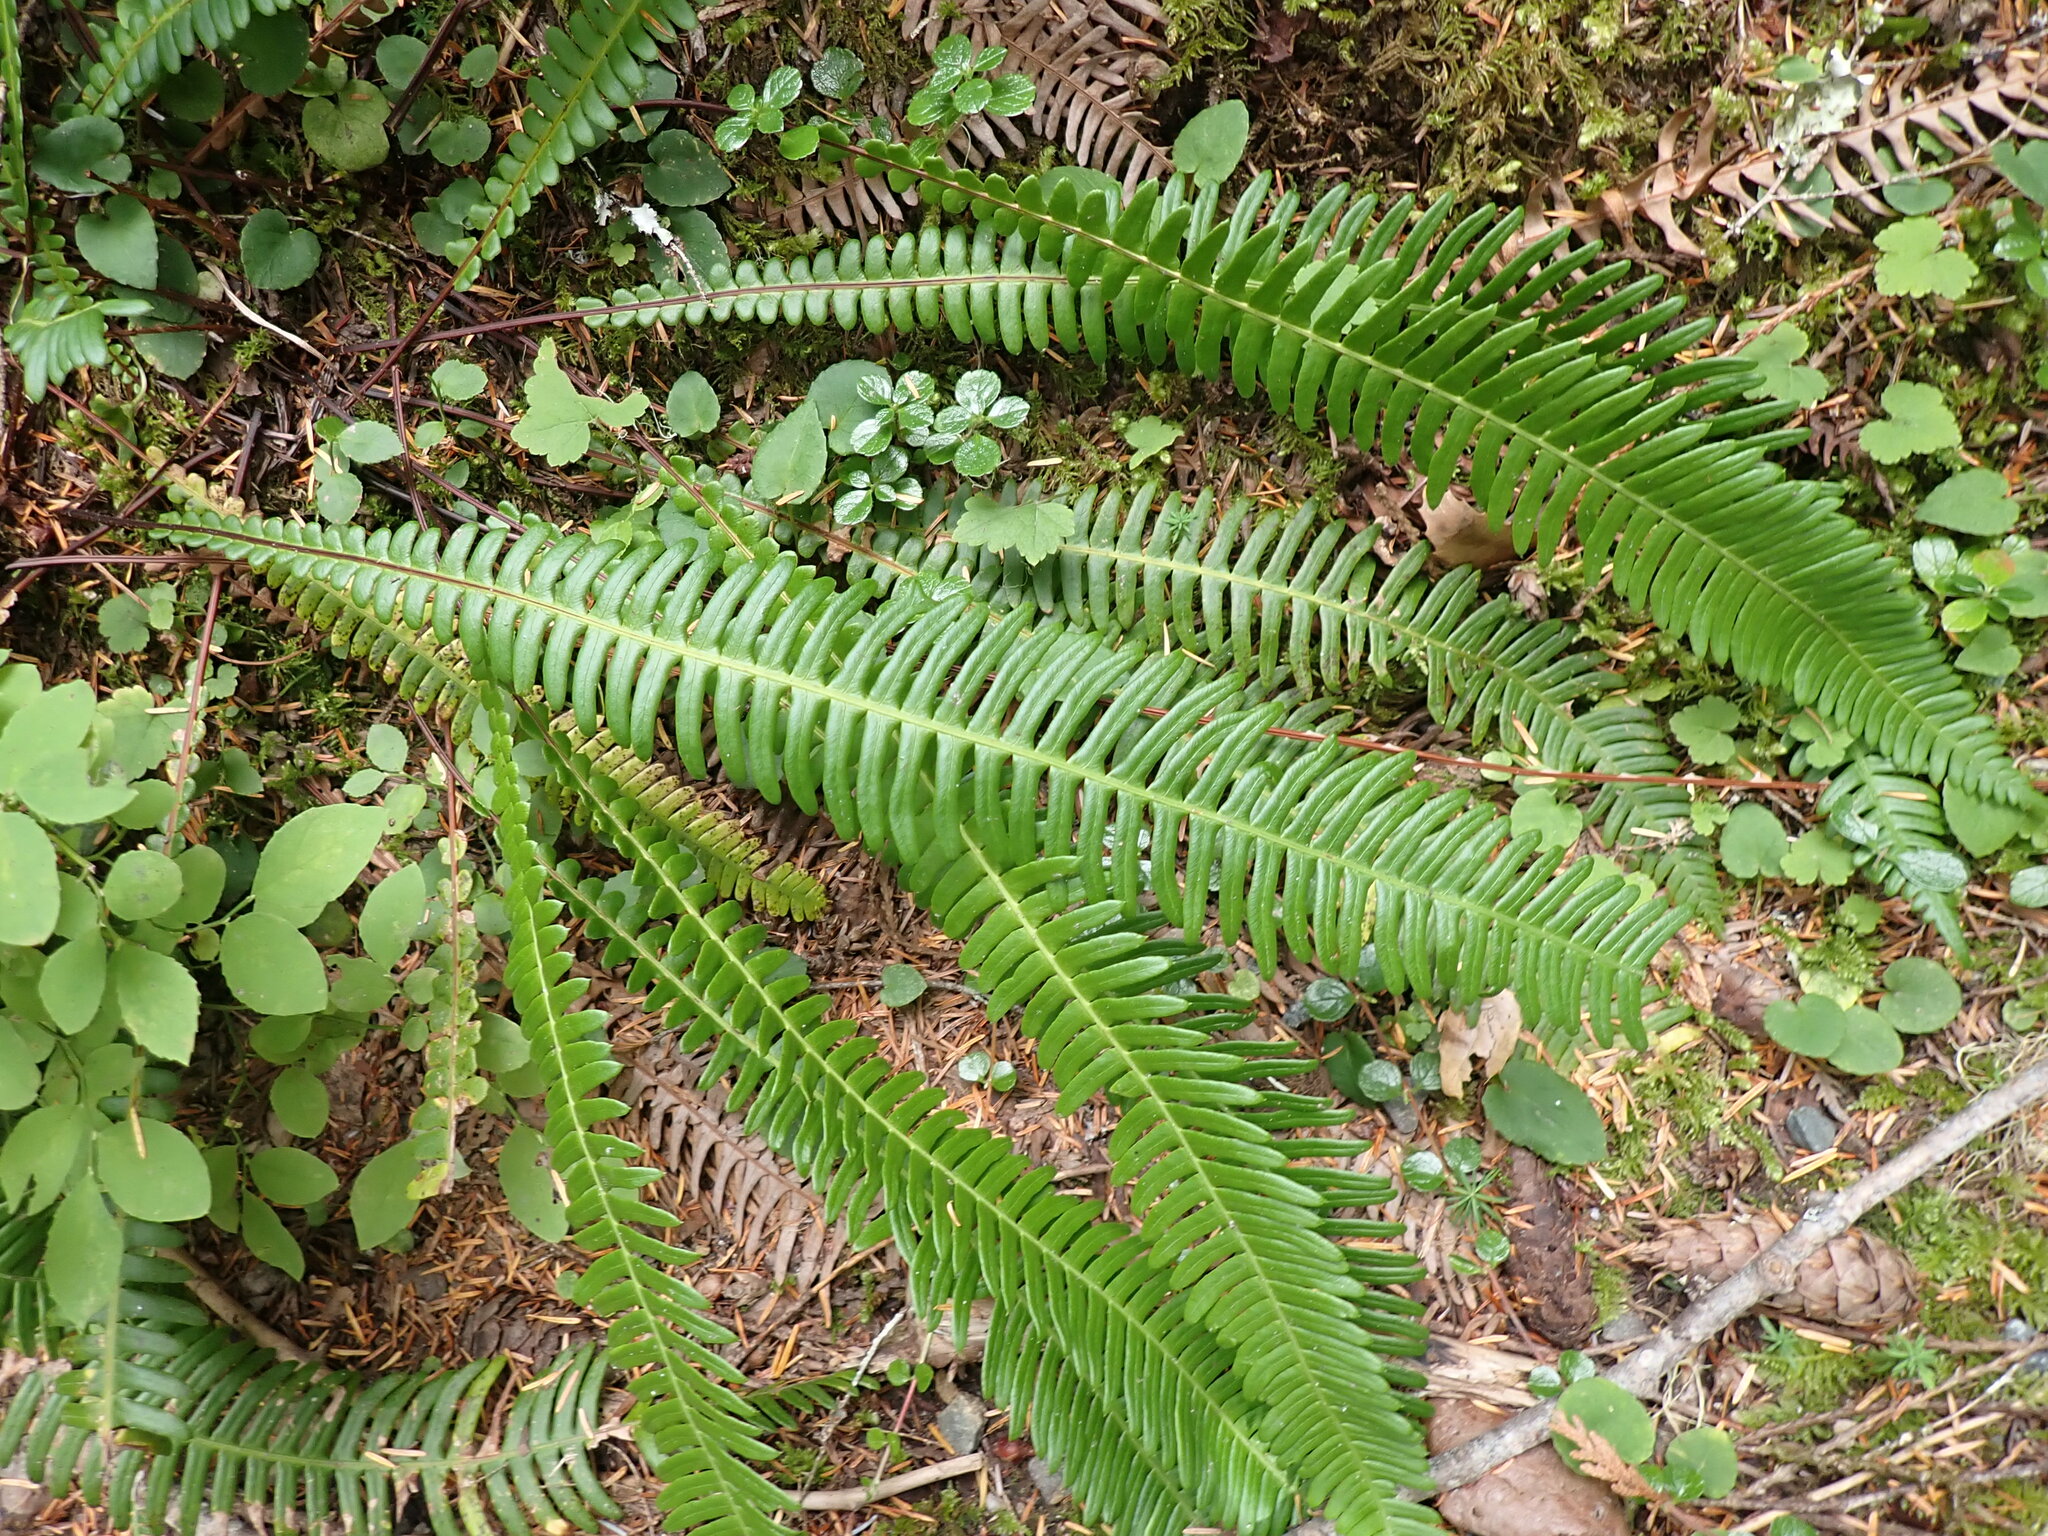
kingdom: Plantae
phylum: Tracheophyta
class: Polypodiopsida
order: Polypodiales
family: Blechnaceae
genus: Struthiopteris
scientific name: Struthiopteris spicant
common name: Deer fern
